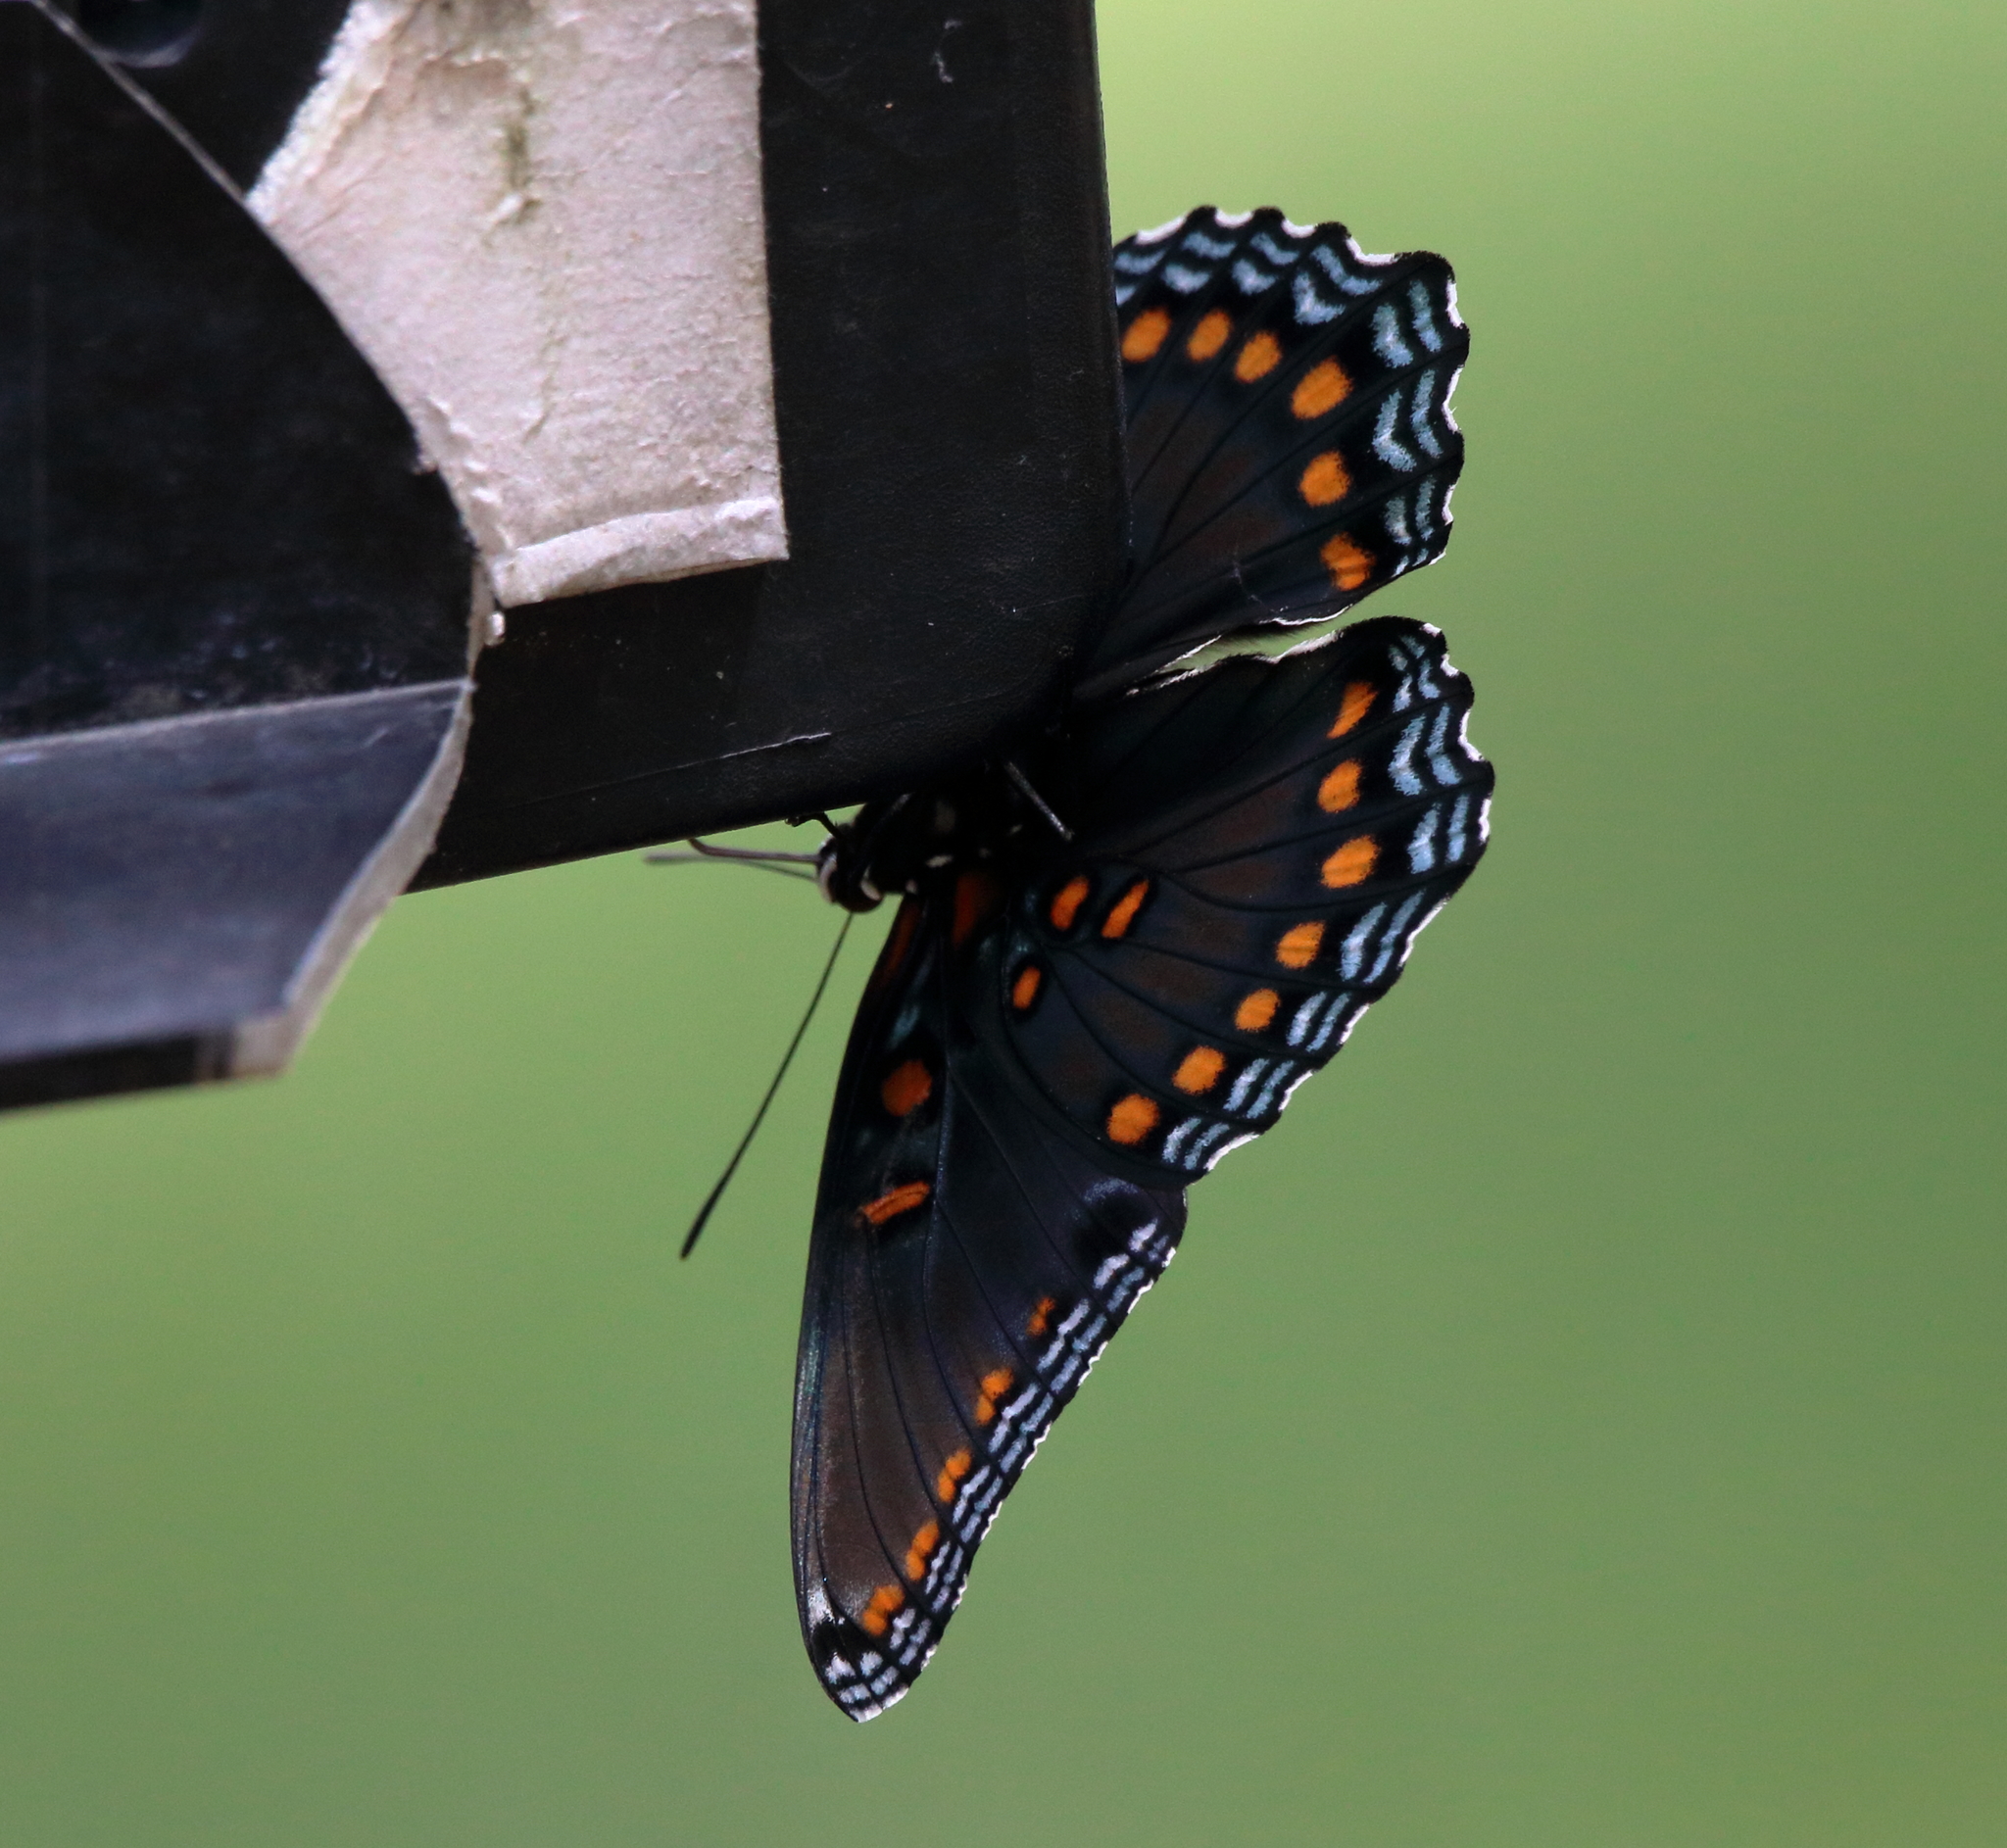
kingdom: Animalia
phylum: Arthropoda
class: Insecta
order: Lepidoptera
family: Nymphalidae
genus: Limenitis
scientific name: Limenitis astyanax
